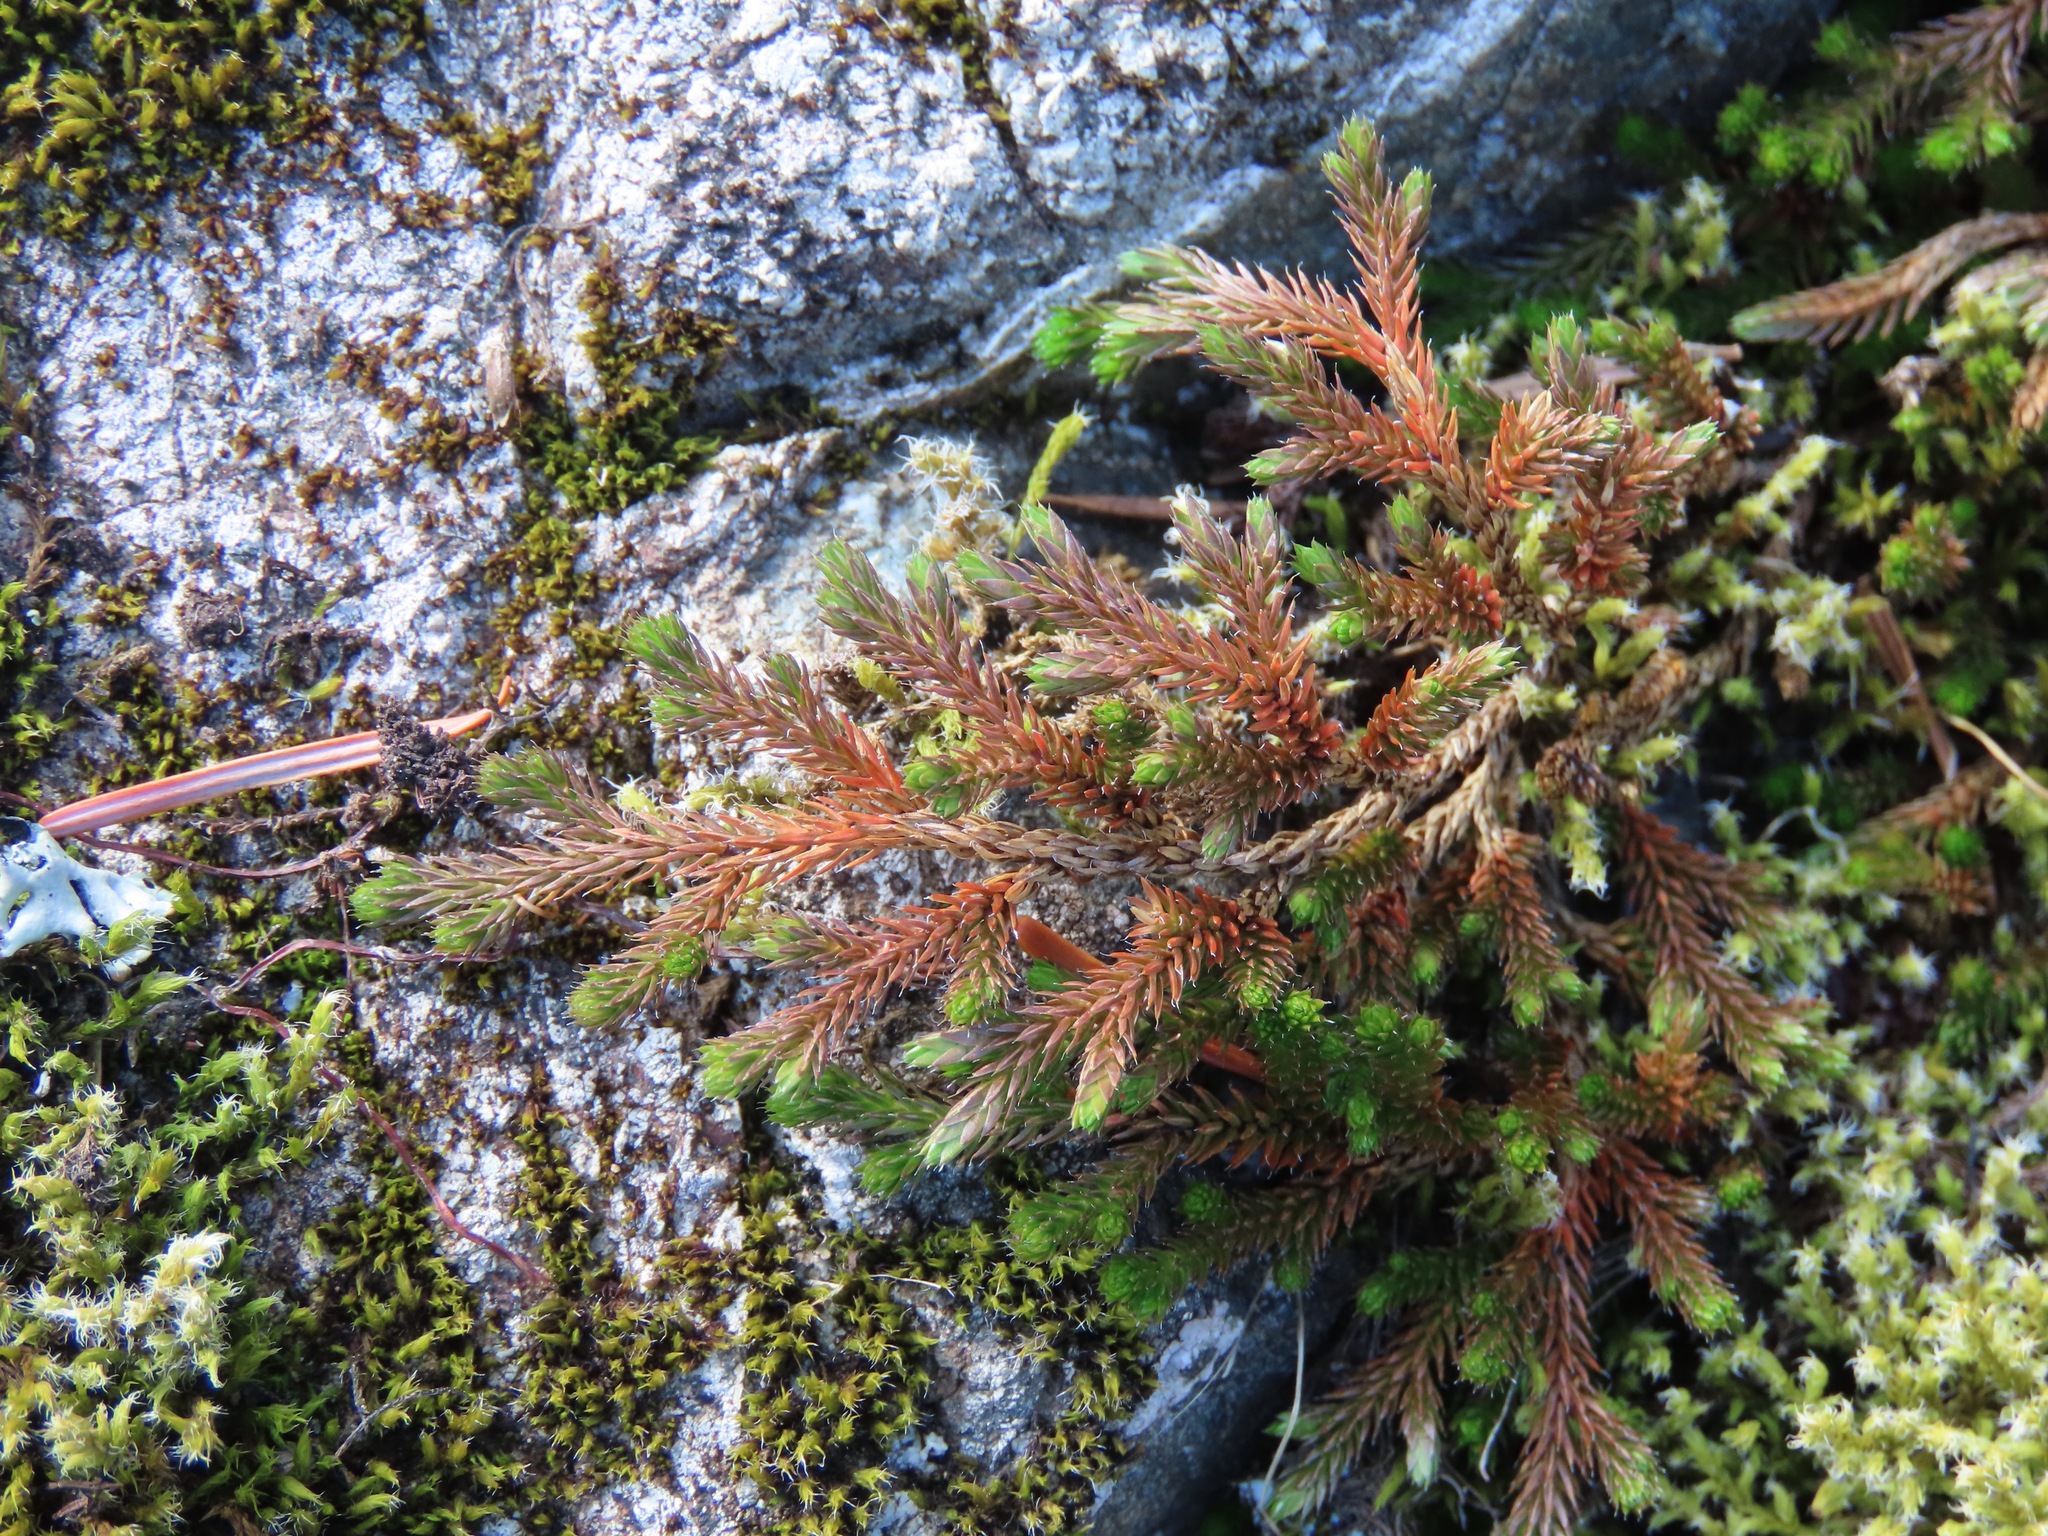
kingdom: Plantae
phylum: Tracheophyta
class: Lycopodiopsida
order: Selaginellales
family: Selaginellaceae
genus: Selaginella
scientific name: Selaginella wallacei
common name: Wallace's selaginella
